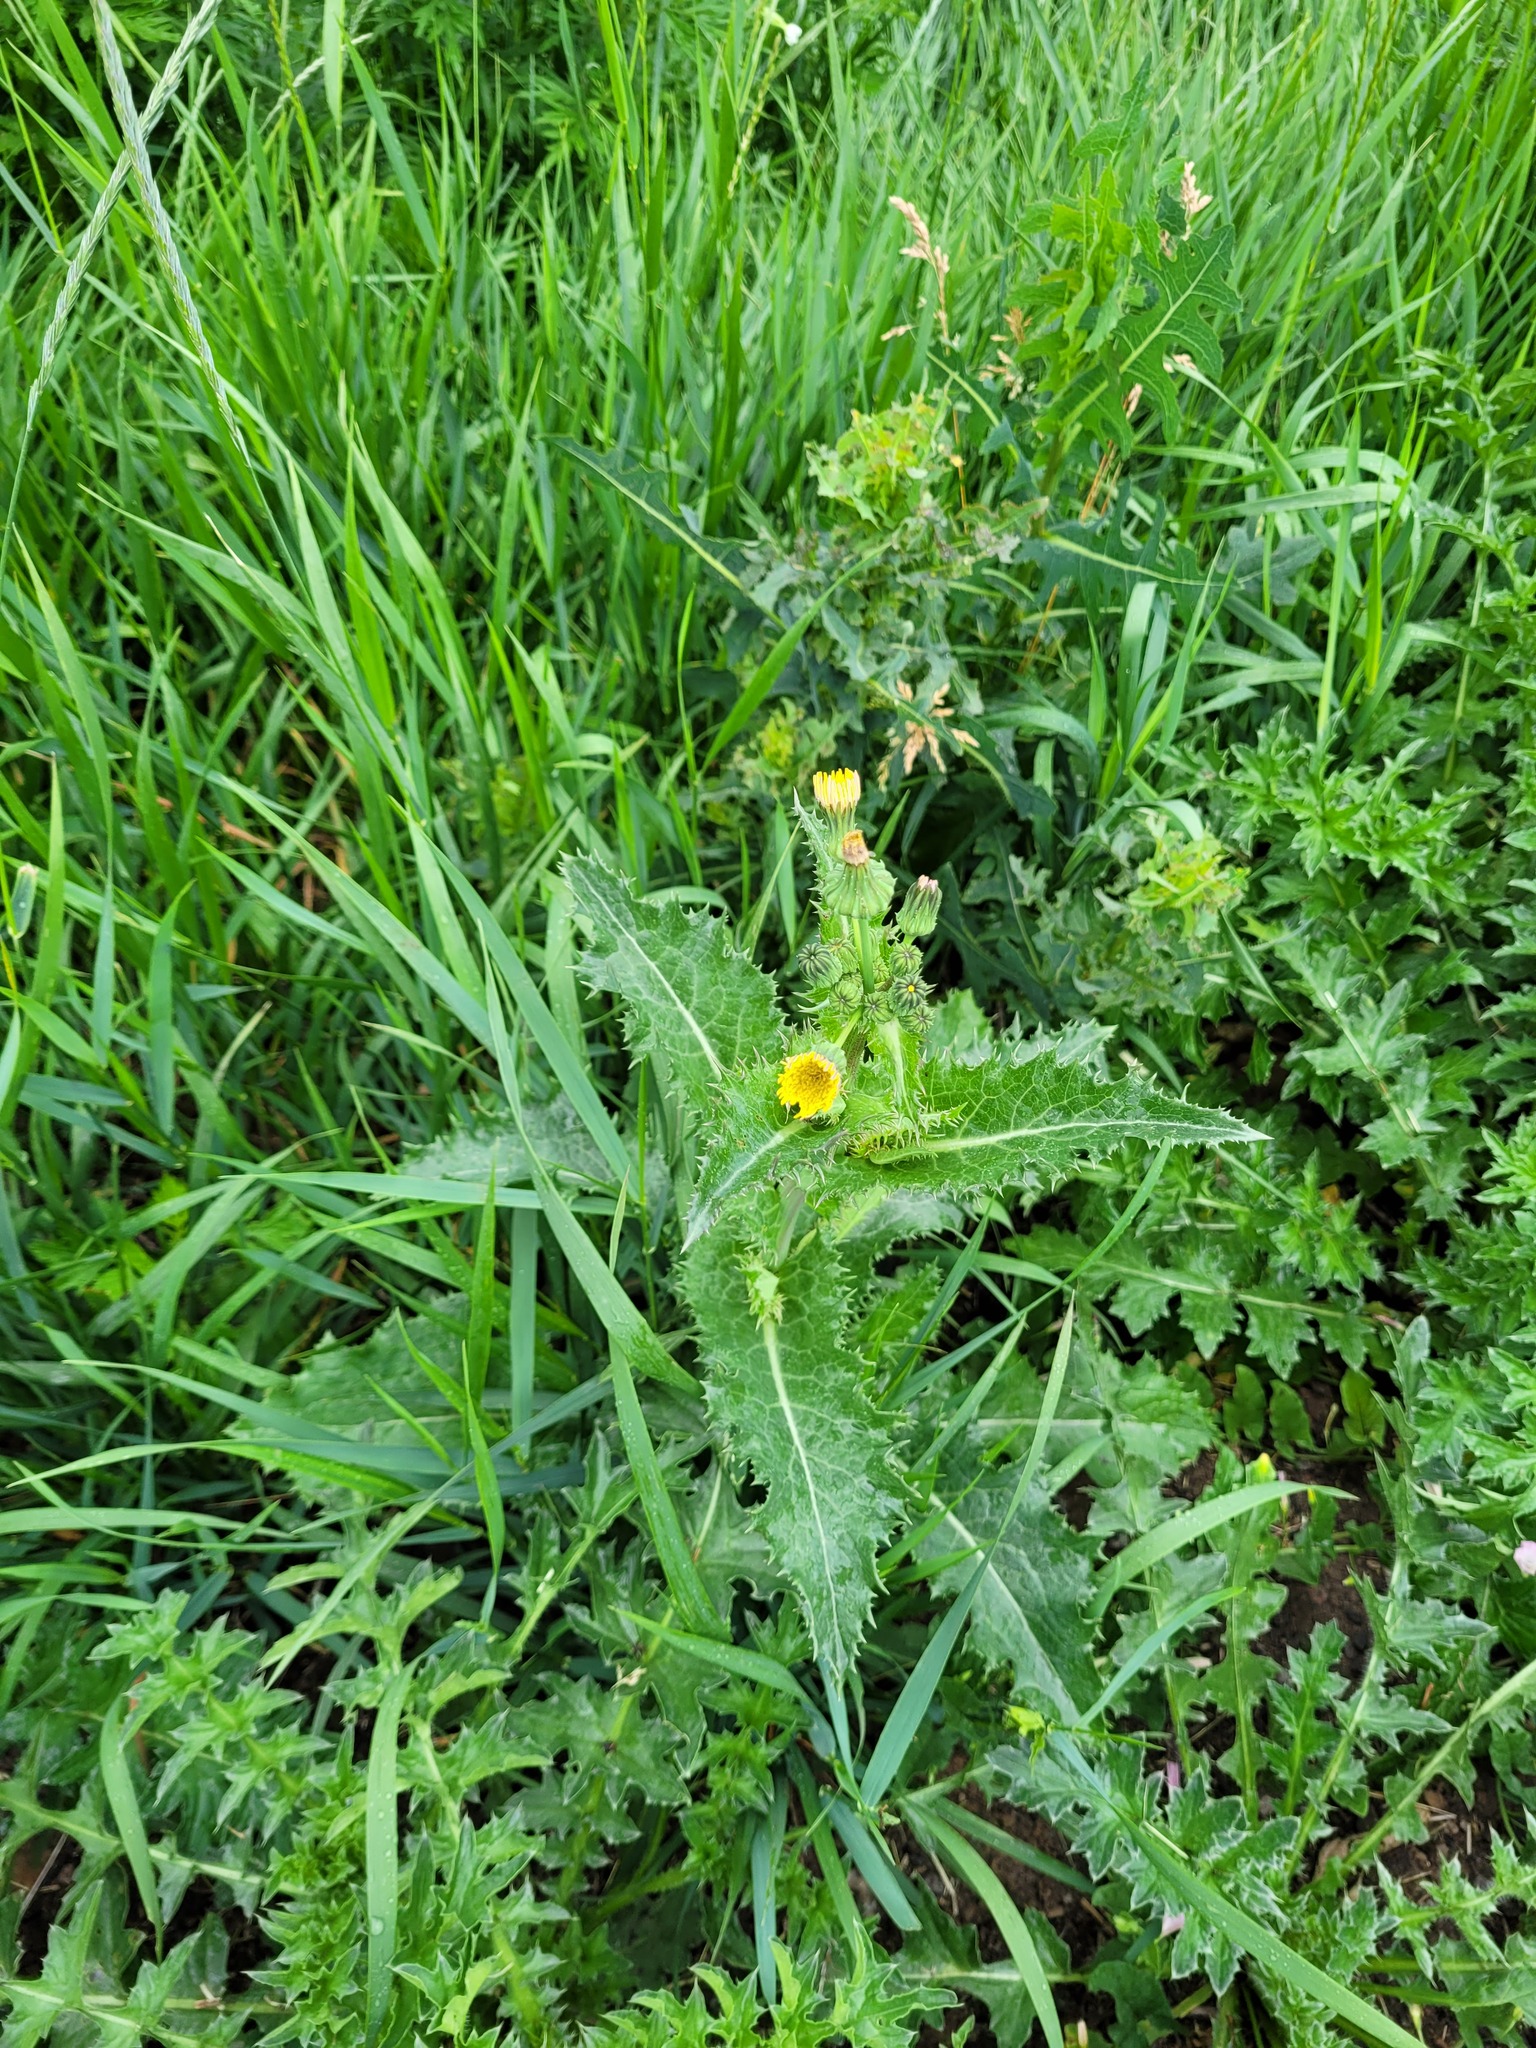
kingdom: Plantae
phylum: Tracheophyta
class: Magnoliopsida
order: Asterales
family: Asteraceae
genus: Sonchus
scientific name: Sonchus asper
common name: Prickly sow-thistle
